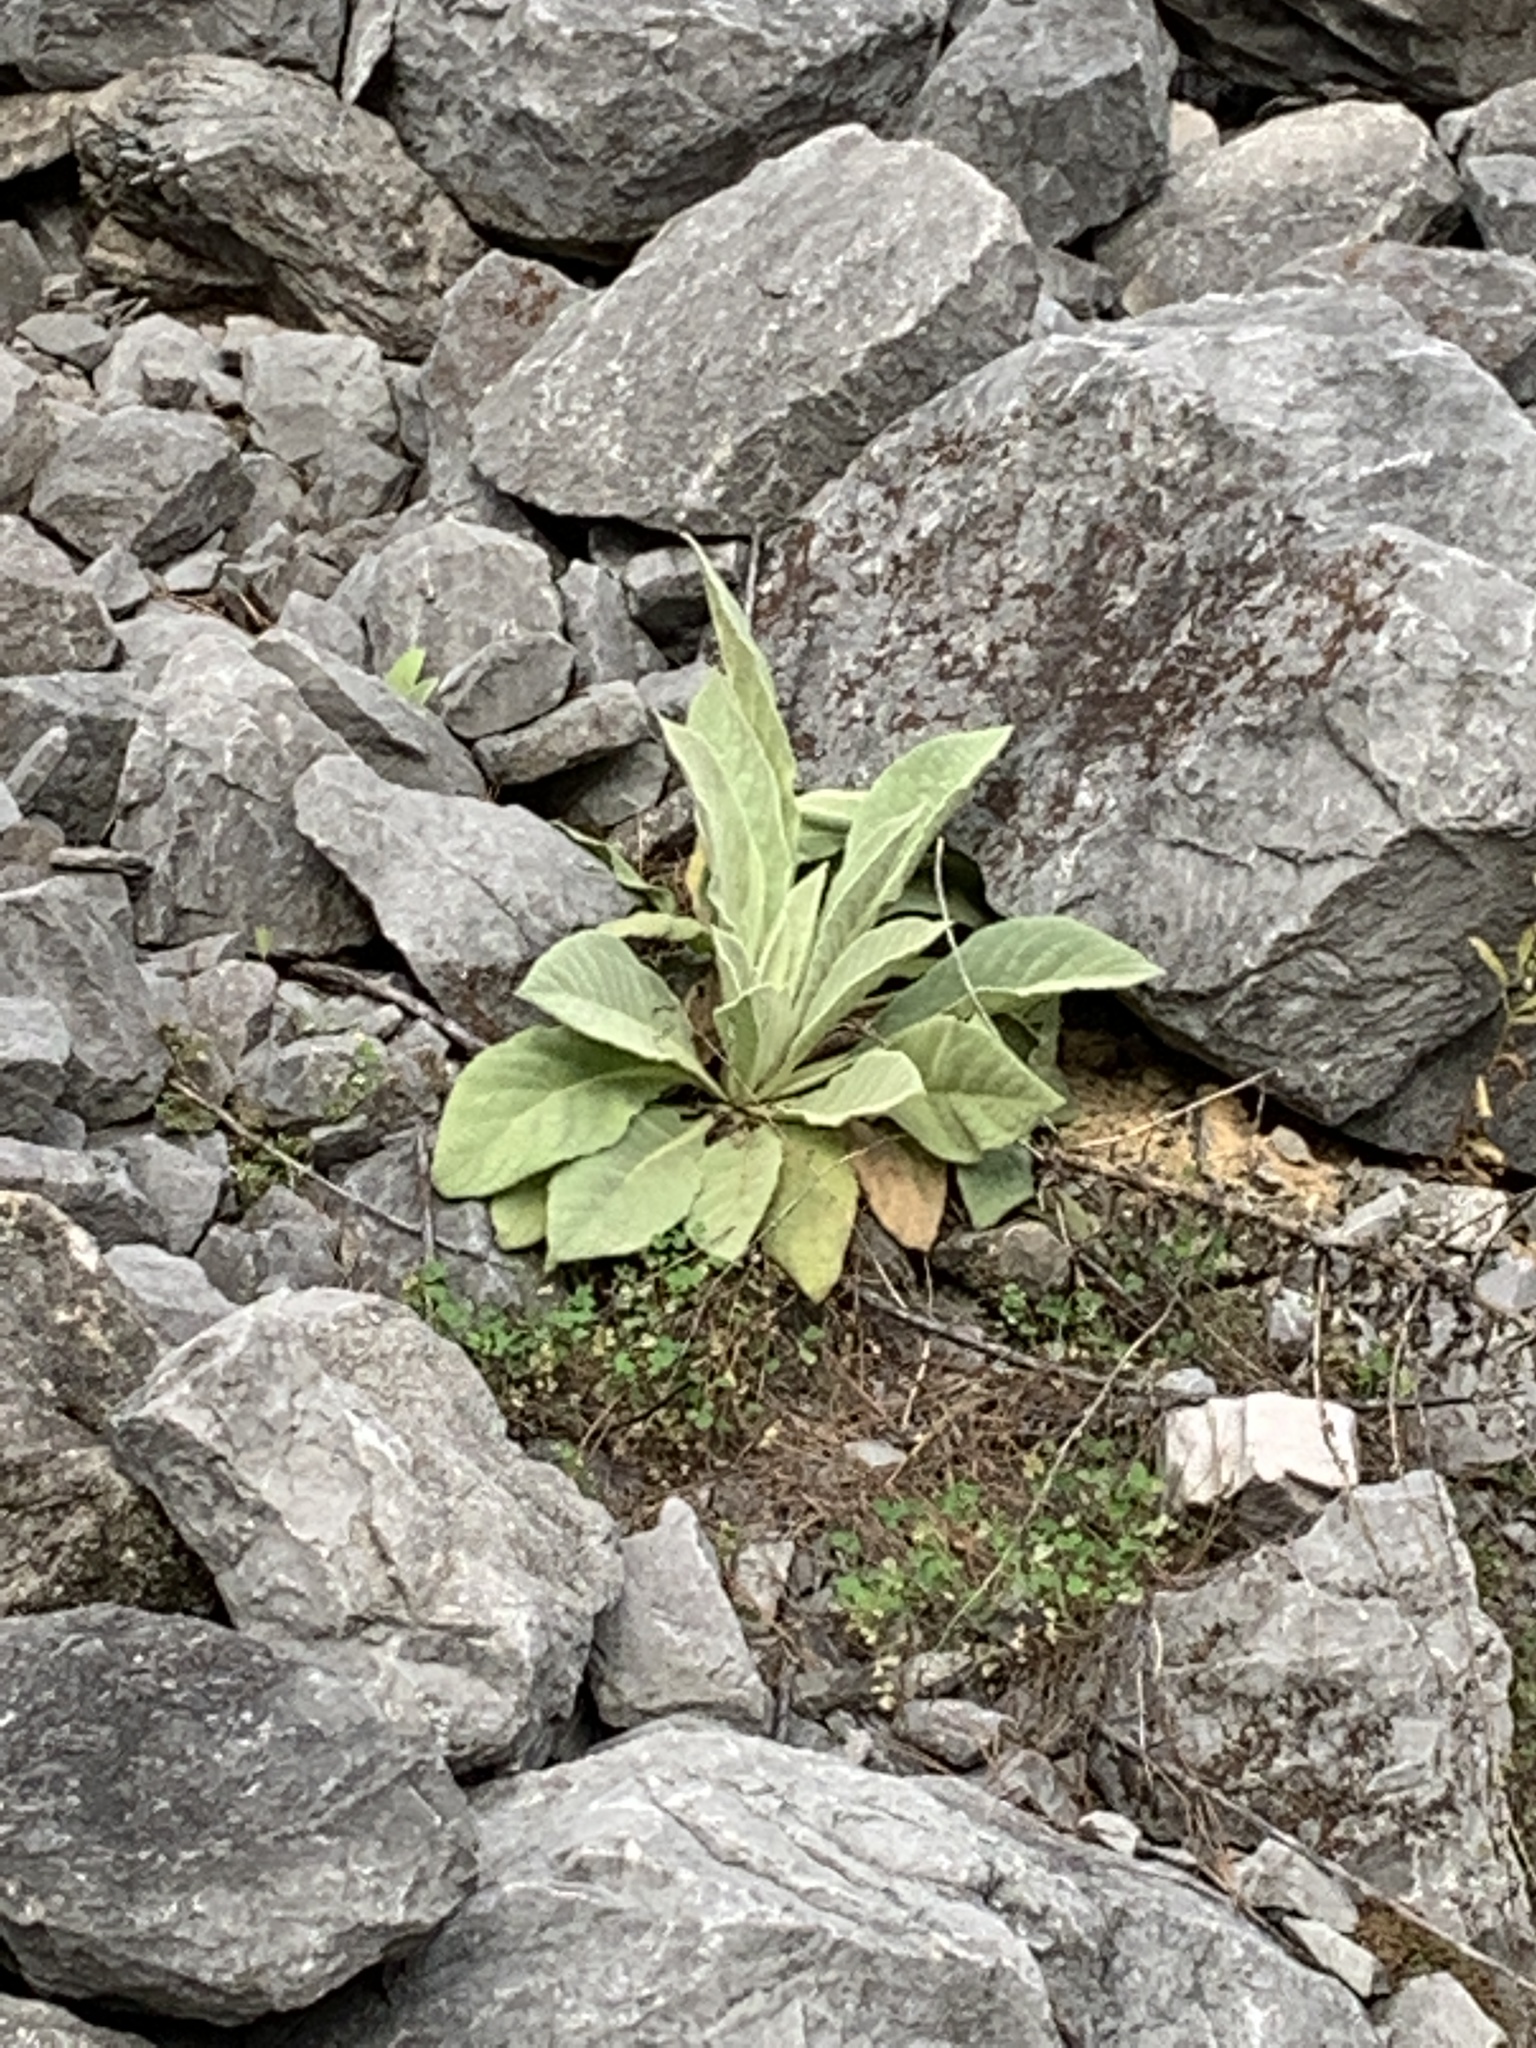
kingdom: Plantae
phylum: Tracheophyta
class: Magnoliopsida
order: Lamiales
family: Scrophulariaceae
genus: Verbascum
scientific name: Verbascum thapsus
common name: Common mullein
